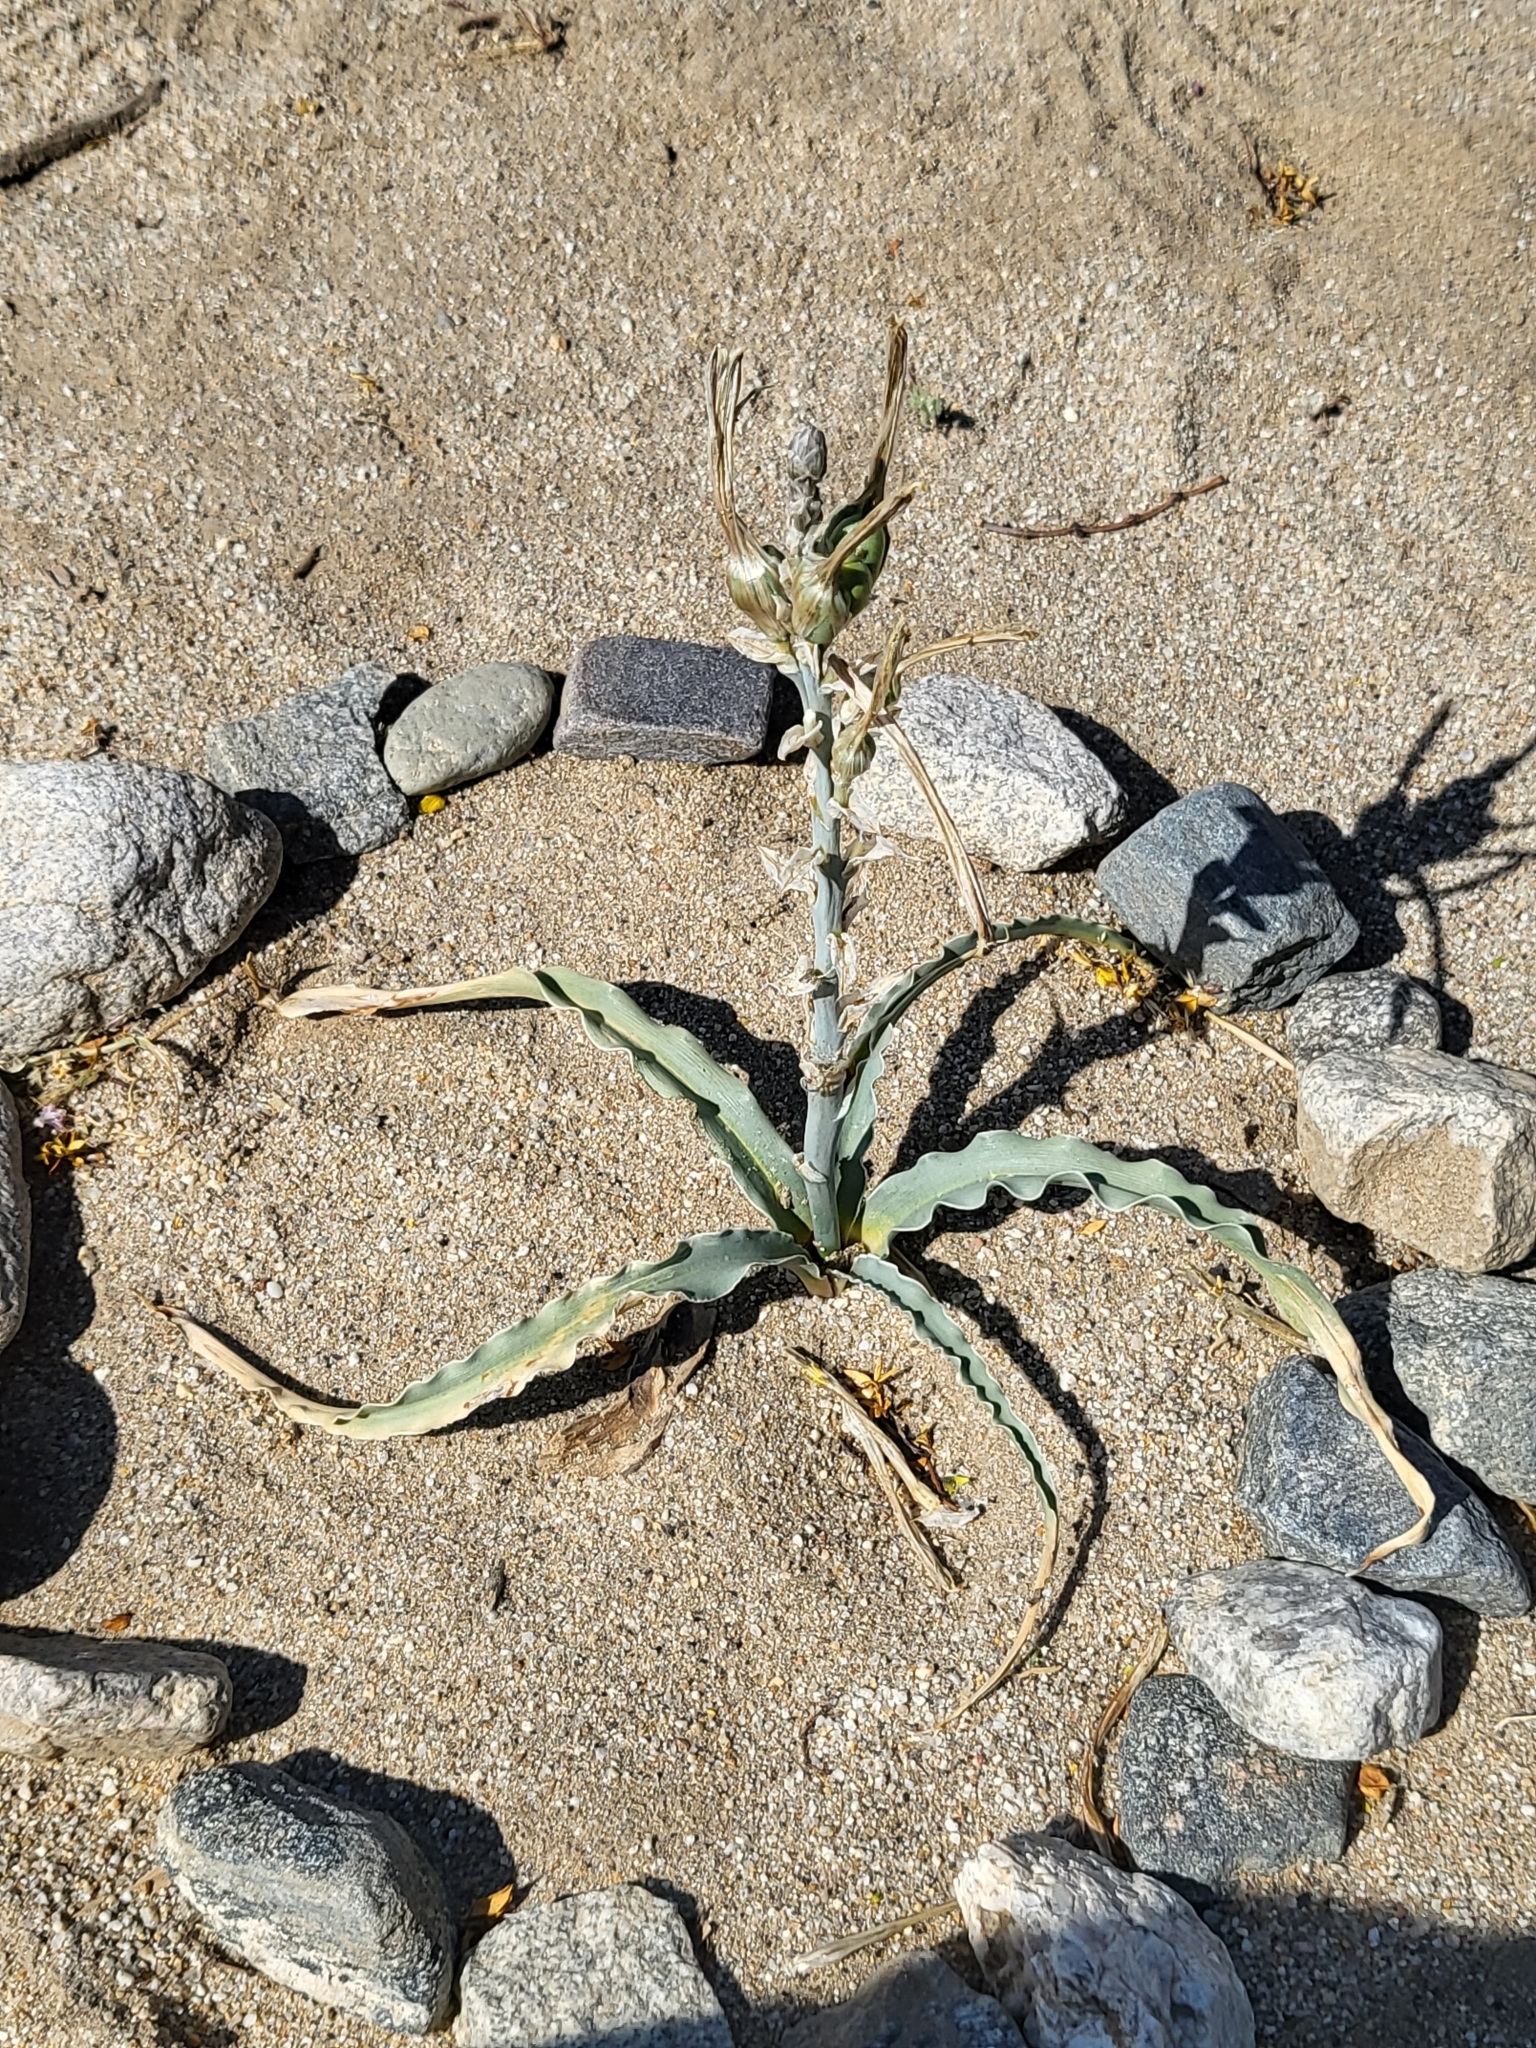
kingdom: Plantae
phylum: Tracheophyta
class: Liliopsida
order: Asparagales
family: Asparagaceae
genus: Hesperocallis
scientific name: Hesperocallis undulata
